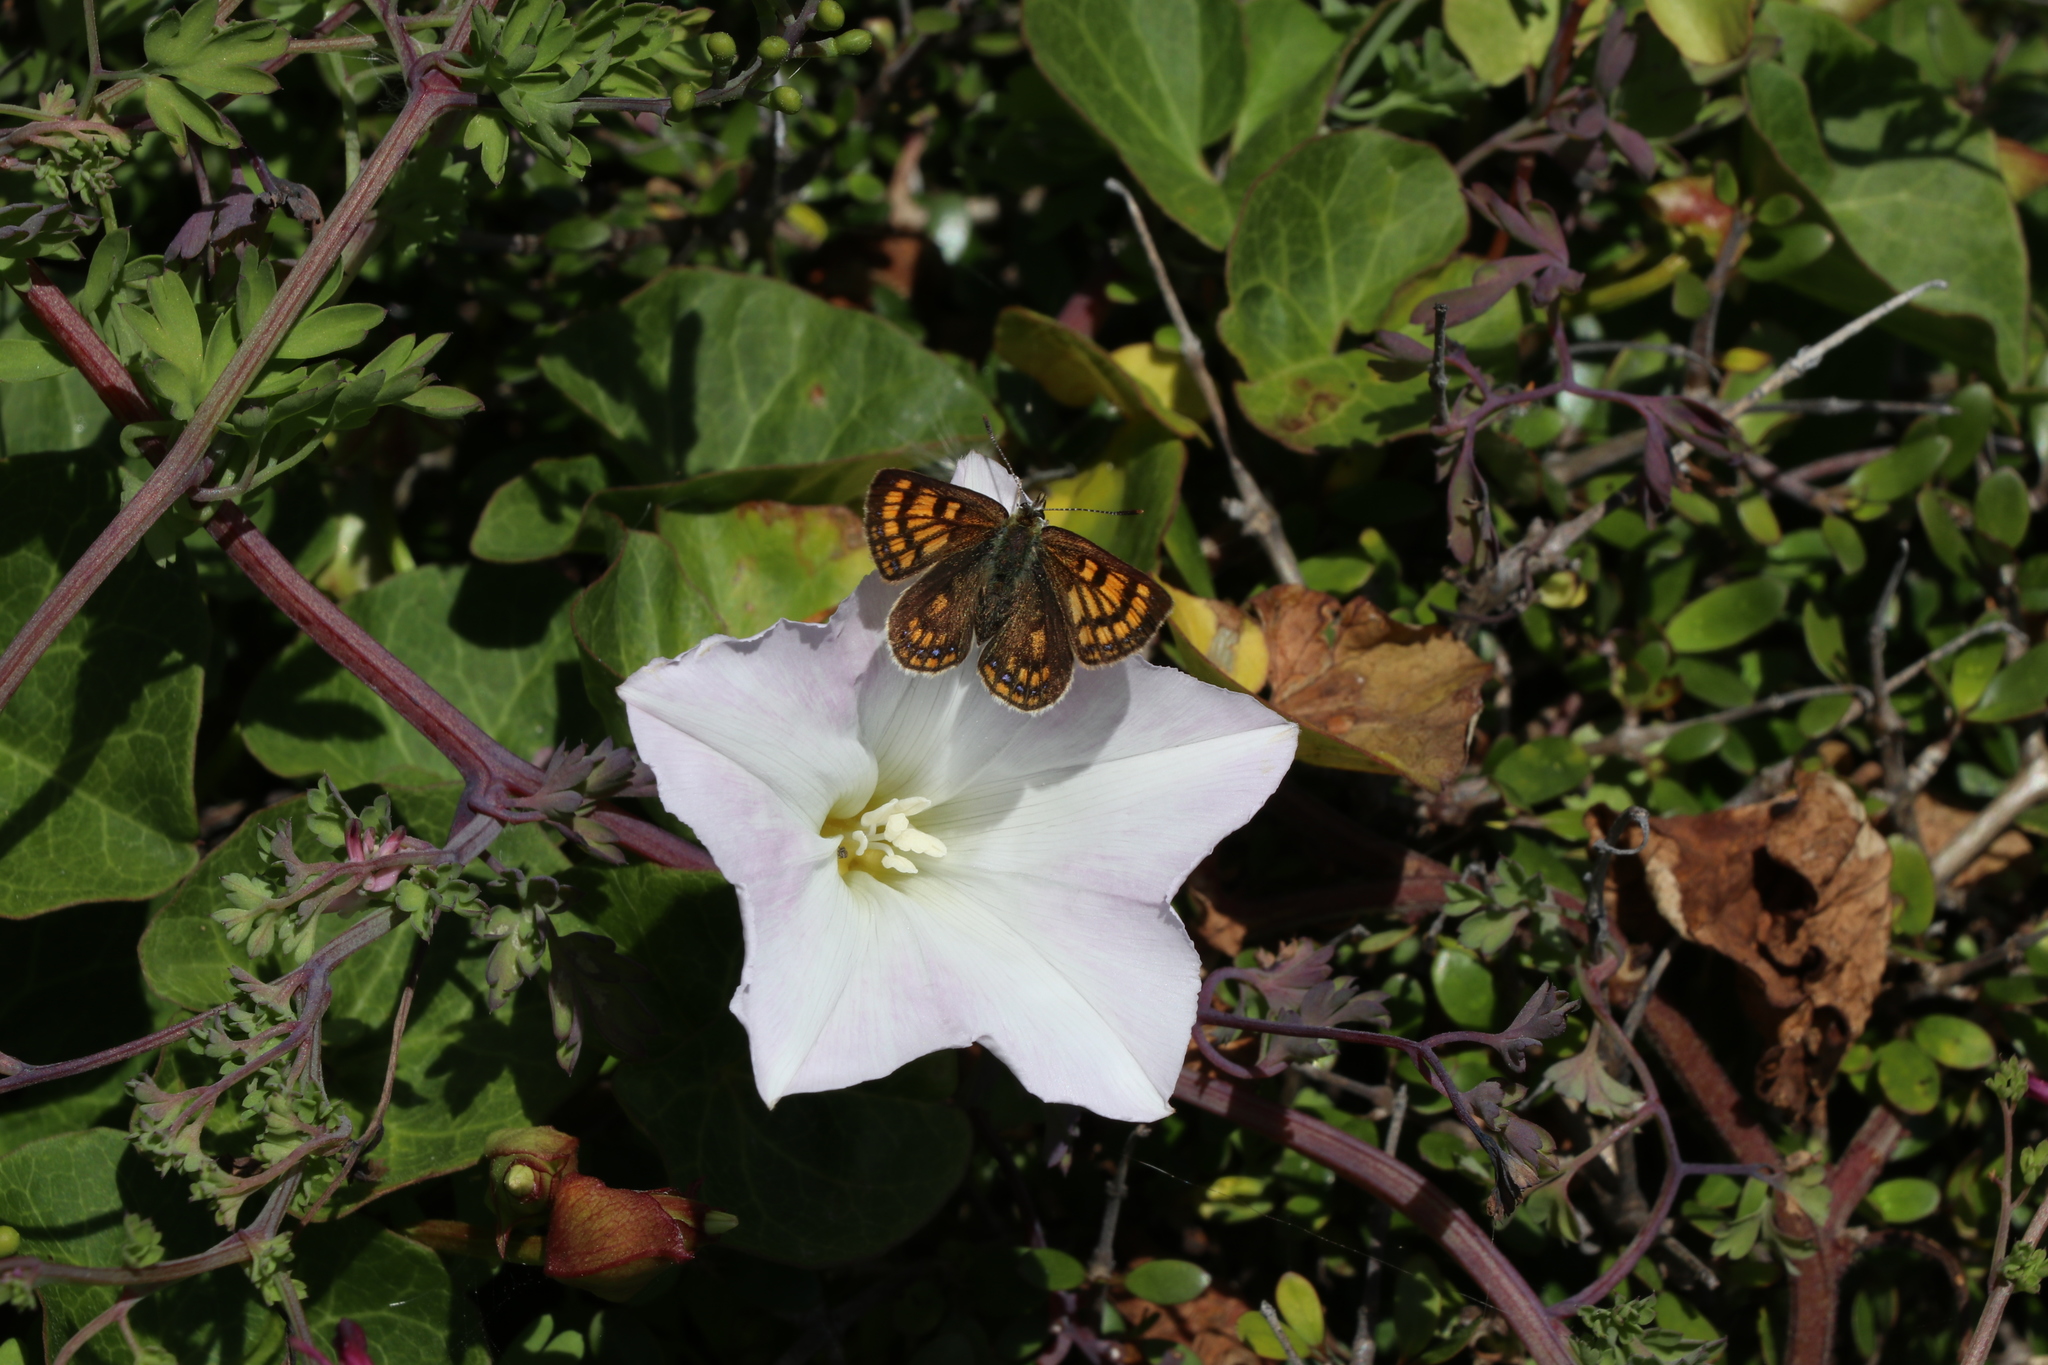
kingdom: Plantae
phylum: Tracheophyta
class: Magnoliopsida
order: Solanales
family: Convolvulaceae
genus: Calystegia
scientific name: Calystegia soldanella
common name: Sea bindweed
